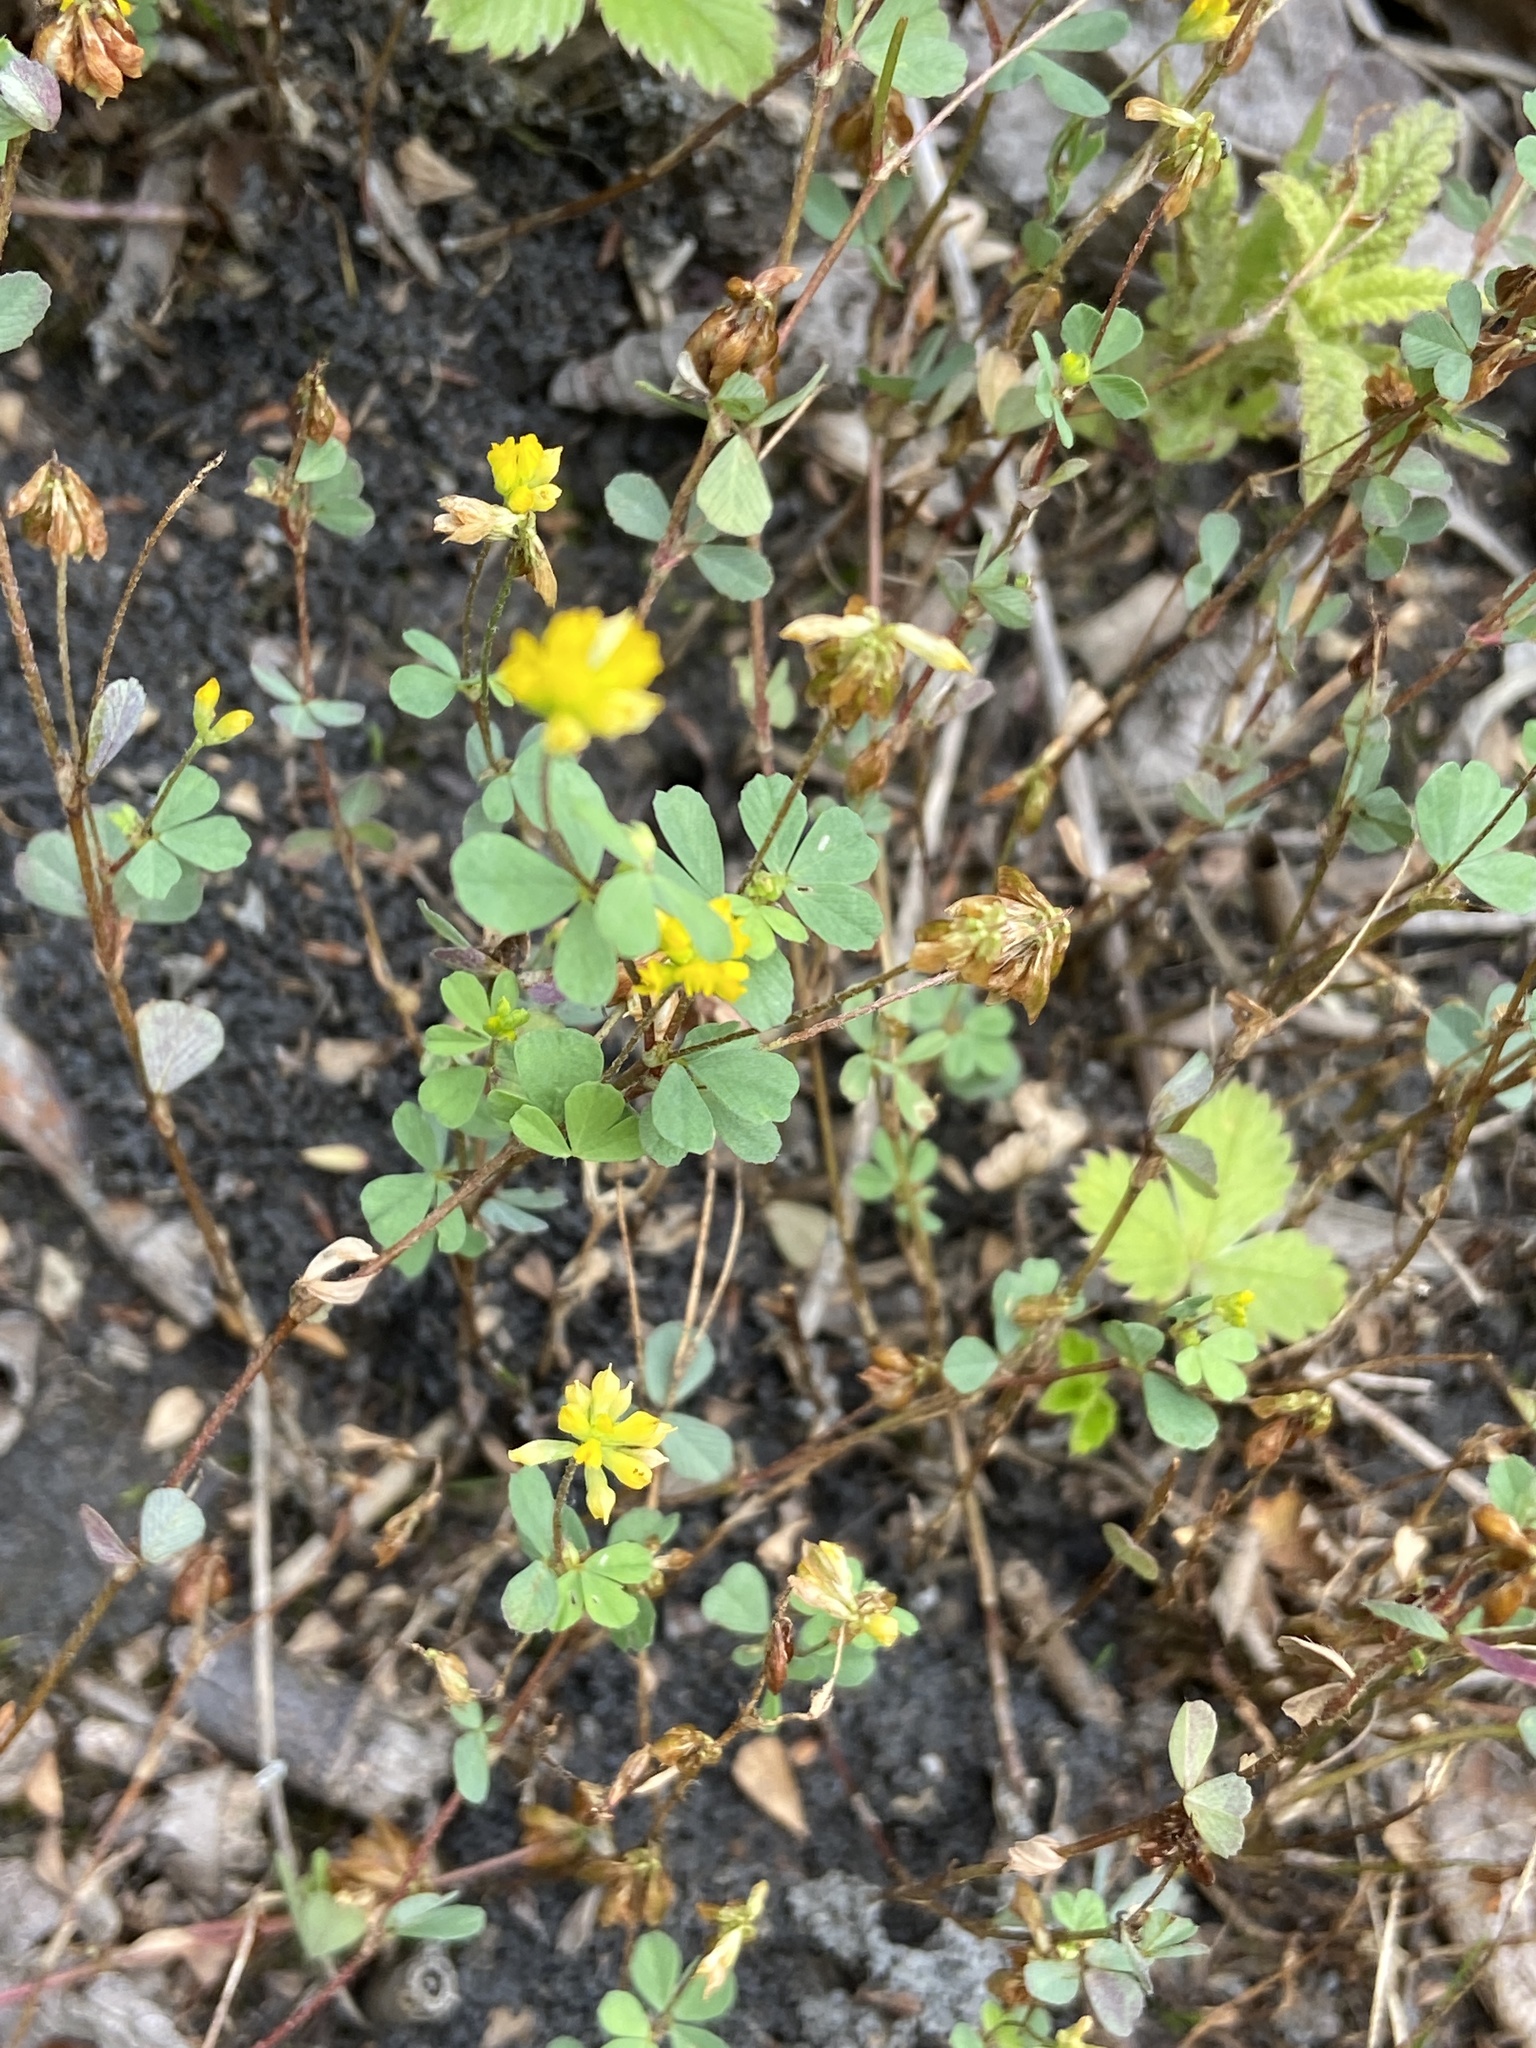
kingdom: Plantae
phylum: Tracheophyta
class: Magnoliopsida
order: Fabales
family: Fabaceae
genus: Trifolium
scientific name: Trifolium dubium
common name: Suckling clover
